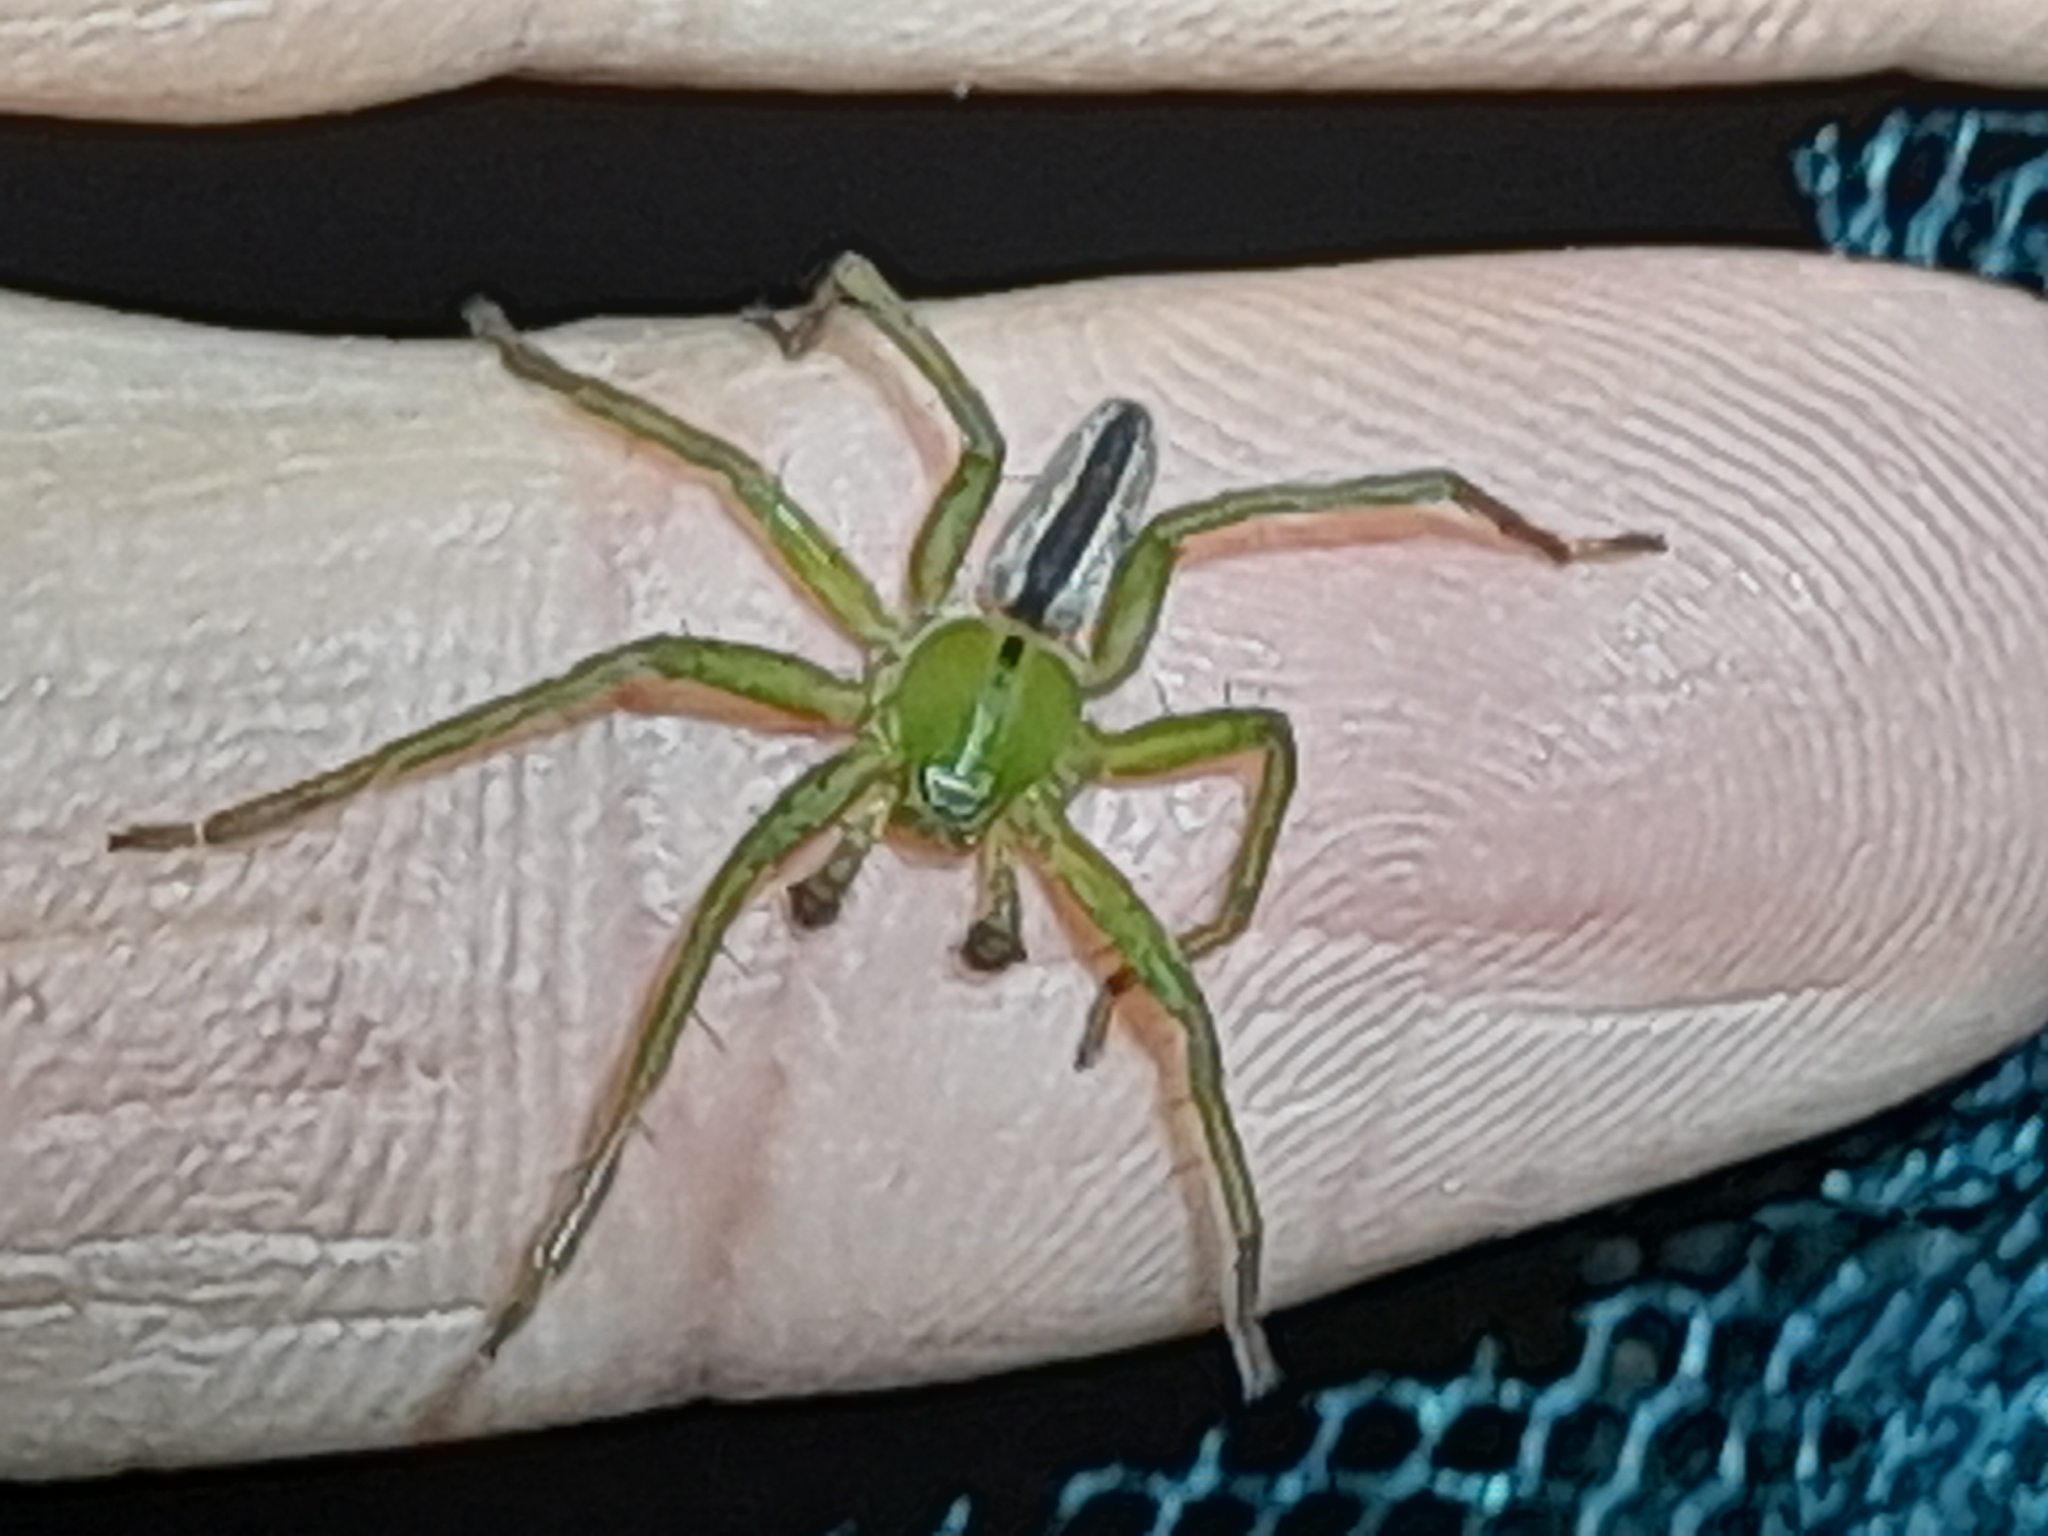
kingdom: Animalia
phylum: Arthropoda
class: Arachnida
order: Araneae
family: Sparassidae
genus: Micrommata
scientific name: Micrommata ligurina
